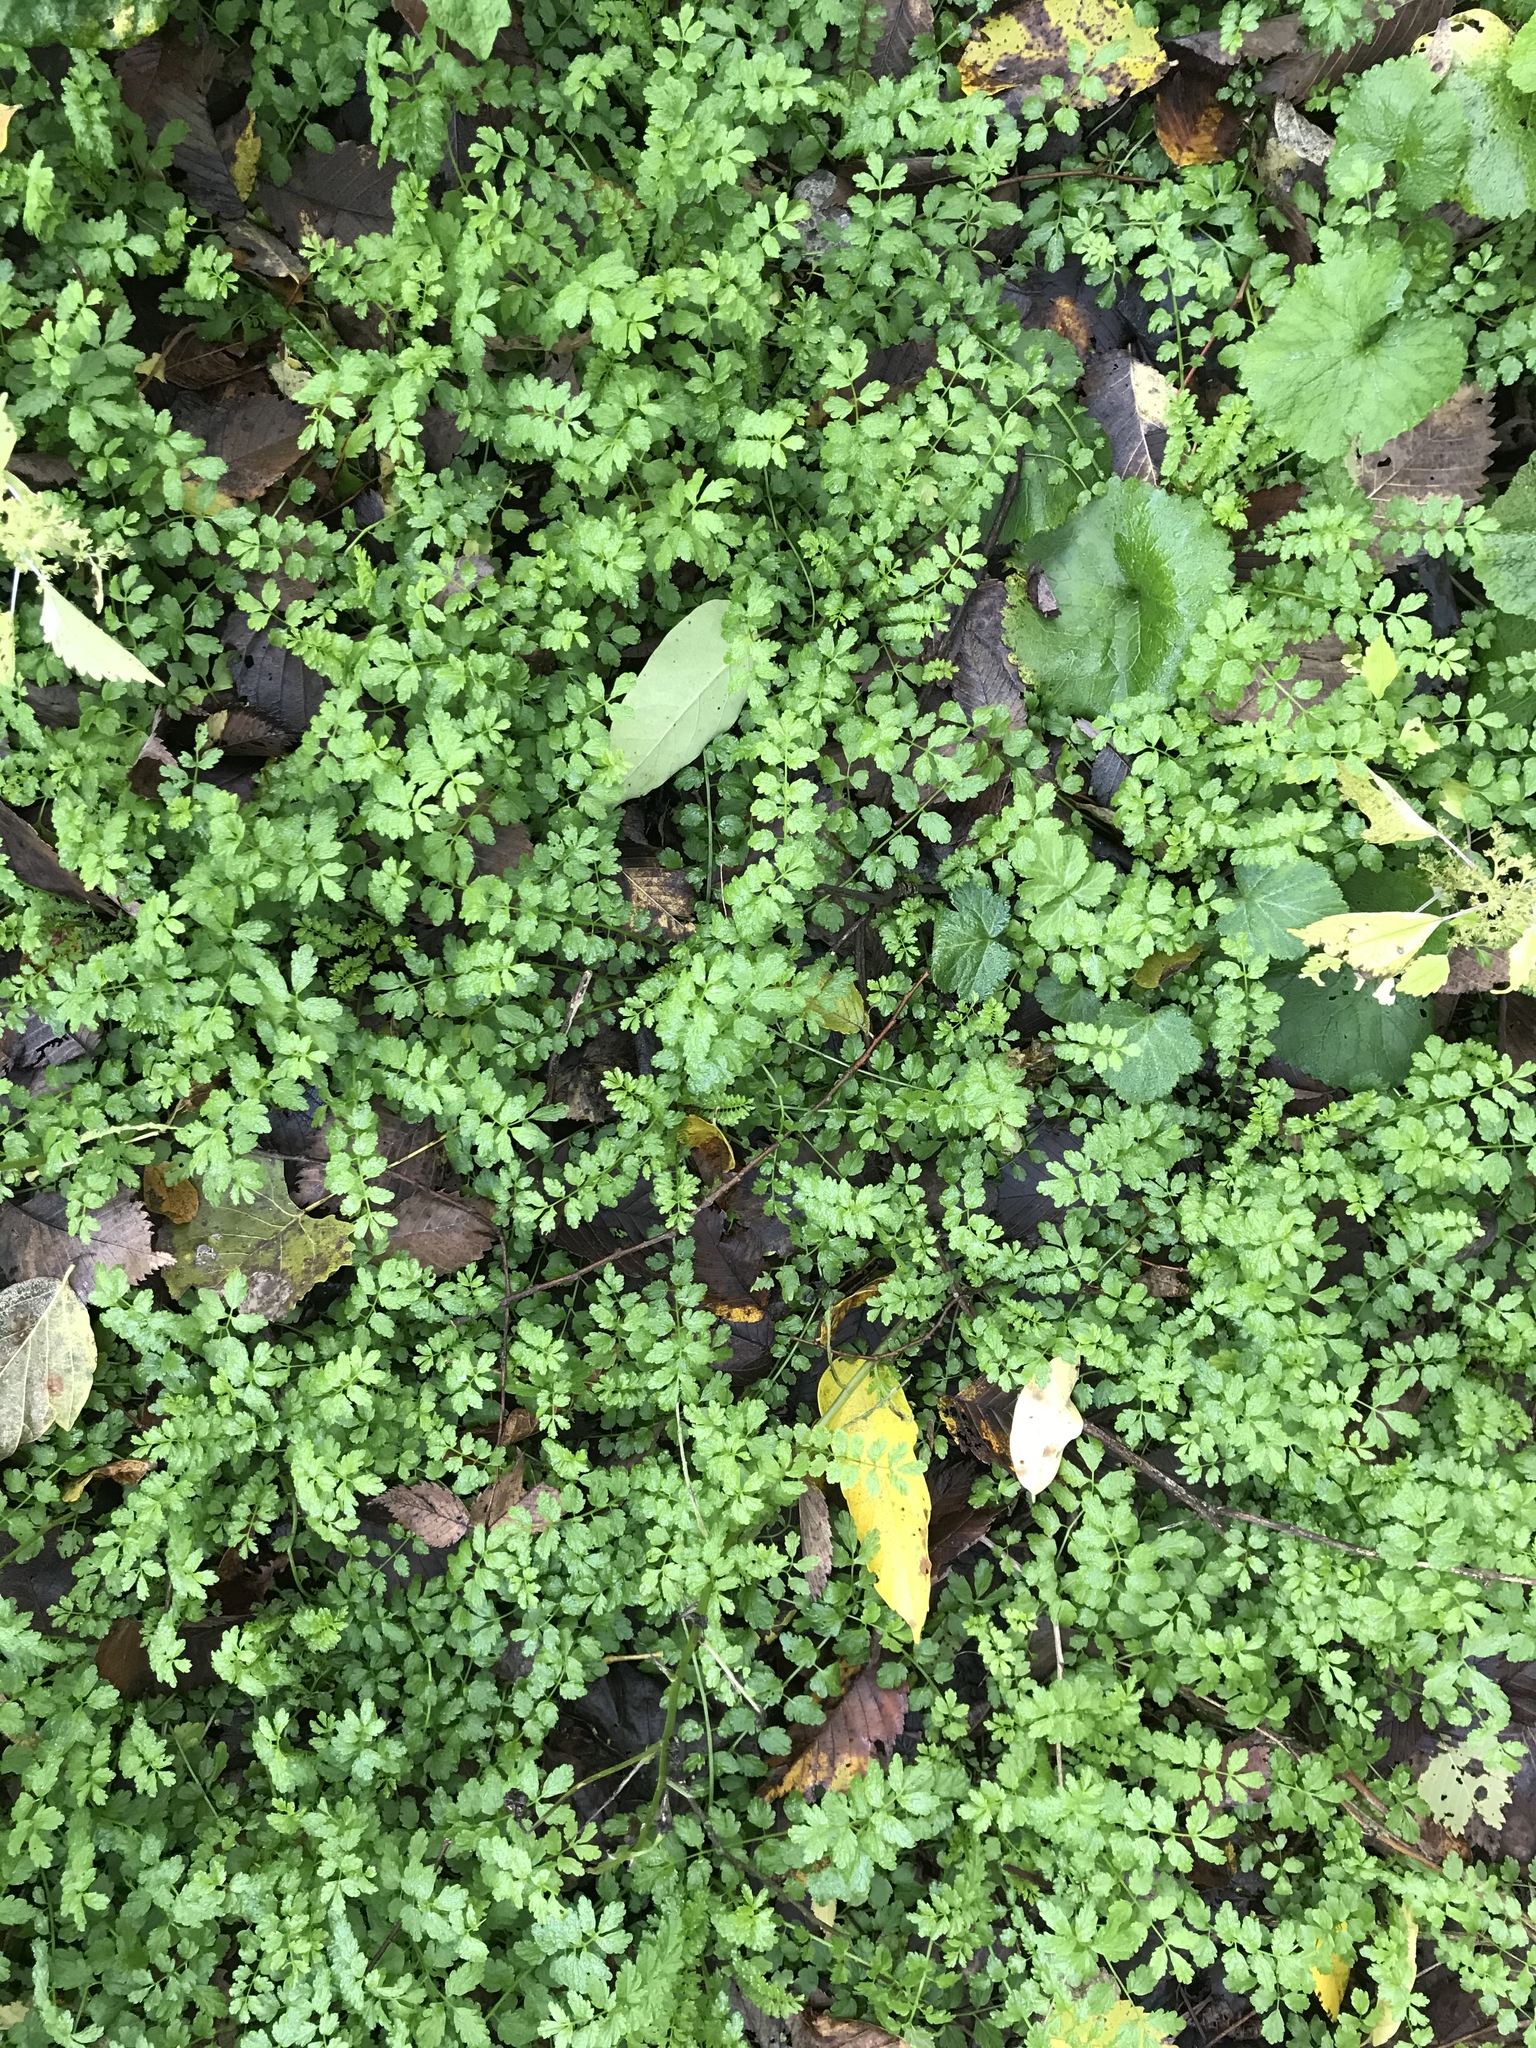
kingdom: Plantae
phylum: Tracheophyta
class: Magnoliopsida
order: Brassicales
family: Brassicaceae
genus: Cardamine
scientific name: Cardamine impatiens
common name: Narrow-leaved bitter-cress
